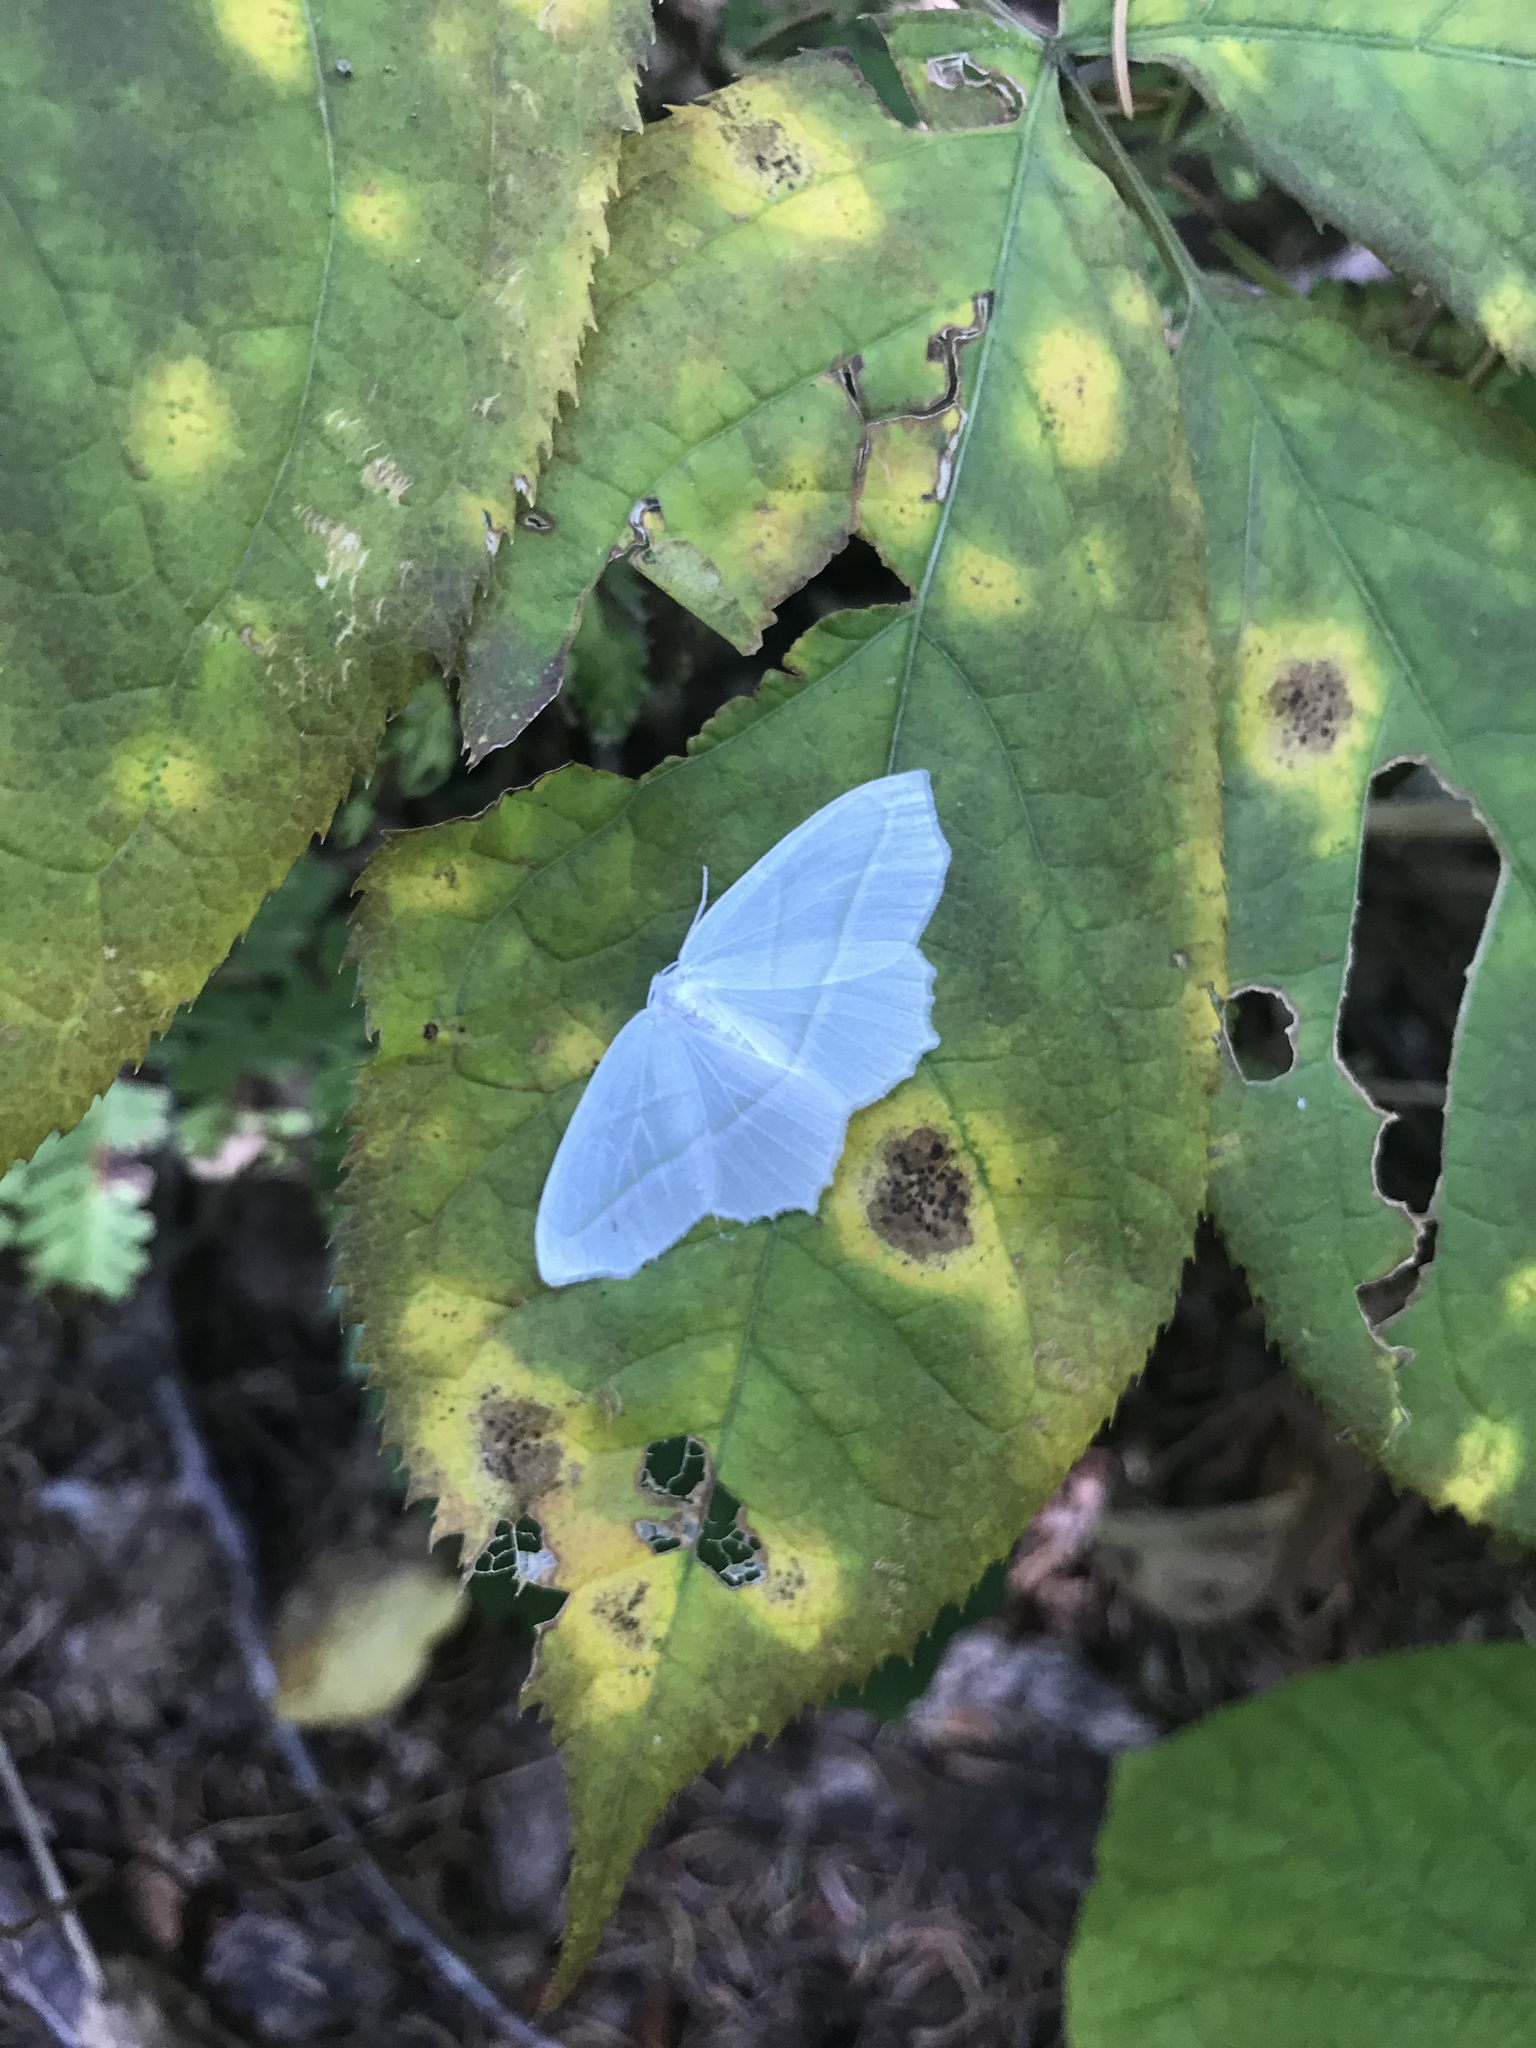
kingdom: Animalia
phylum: Arthropoda
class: Insecta
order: Lepidoptera
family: Geometridae
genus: Campaea
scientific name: Campaea perlata
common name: Fringed looper
